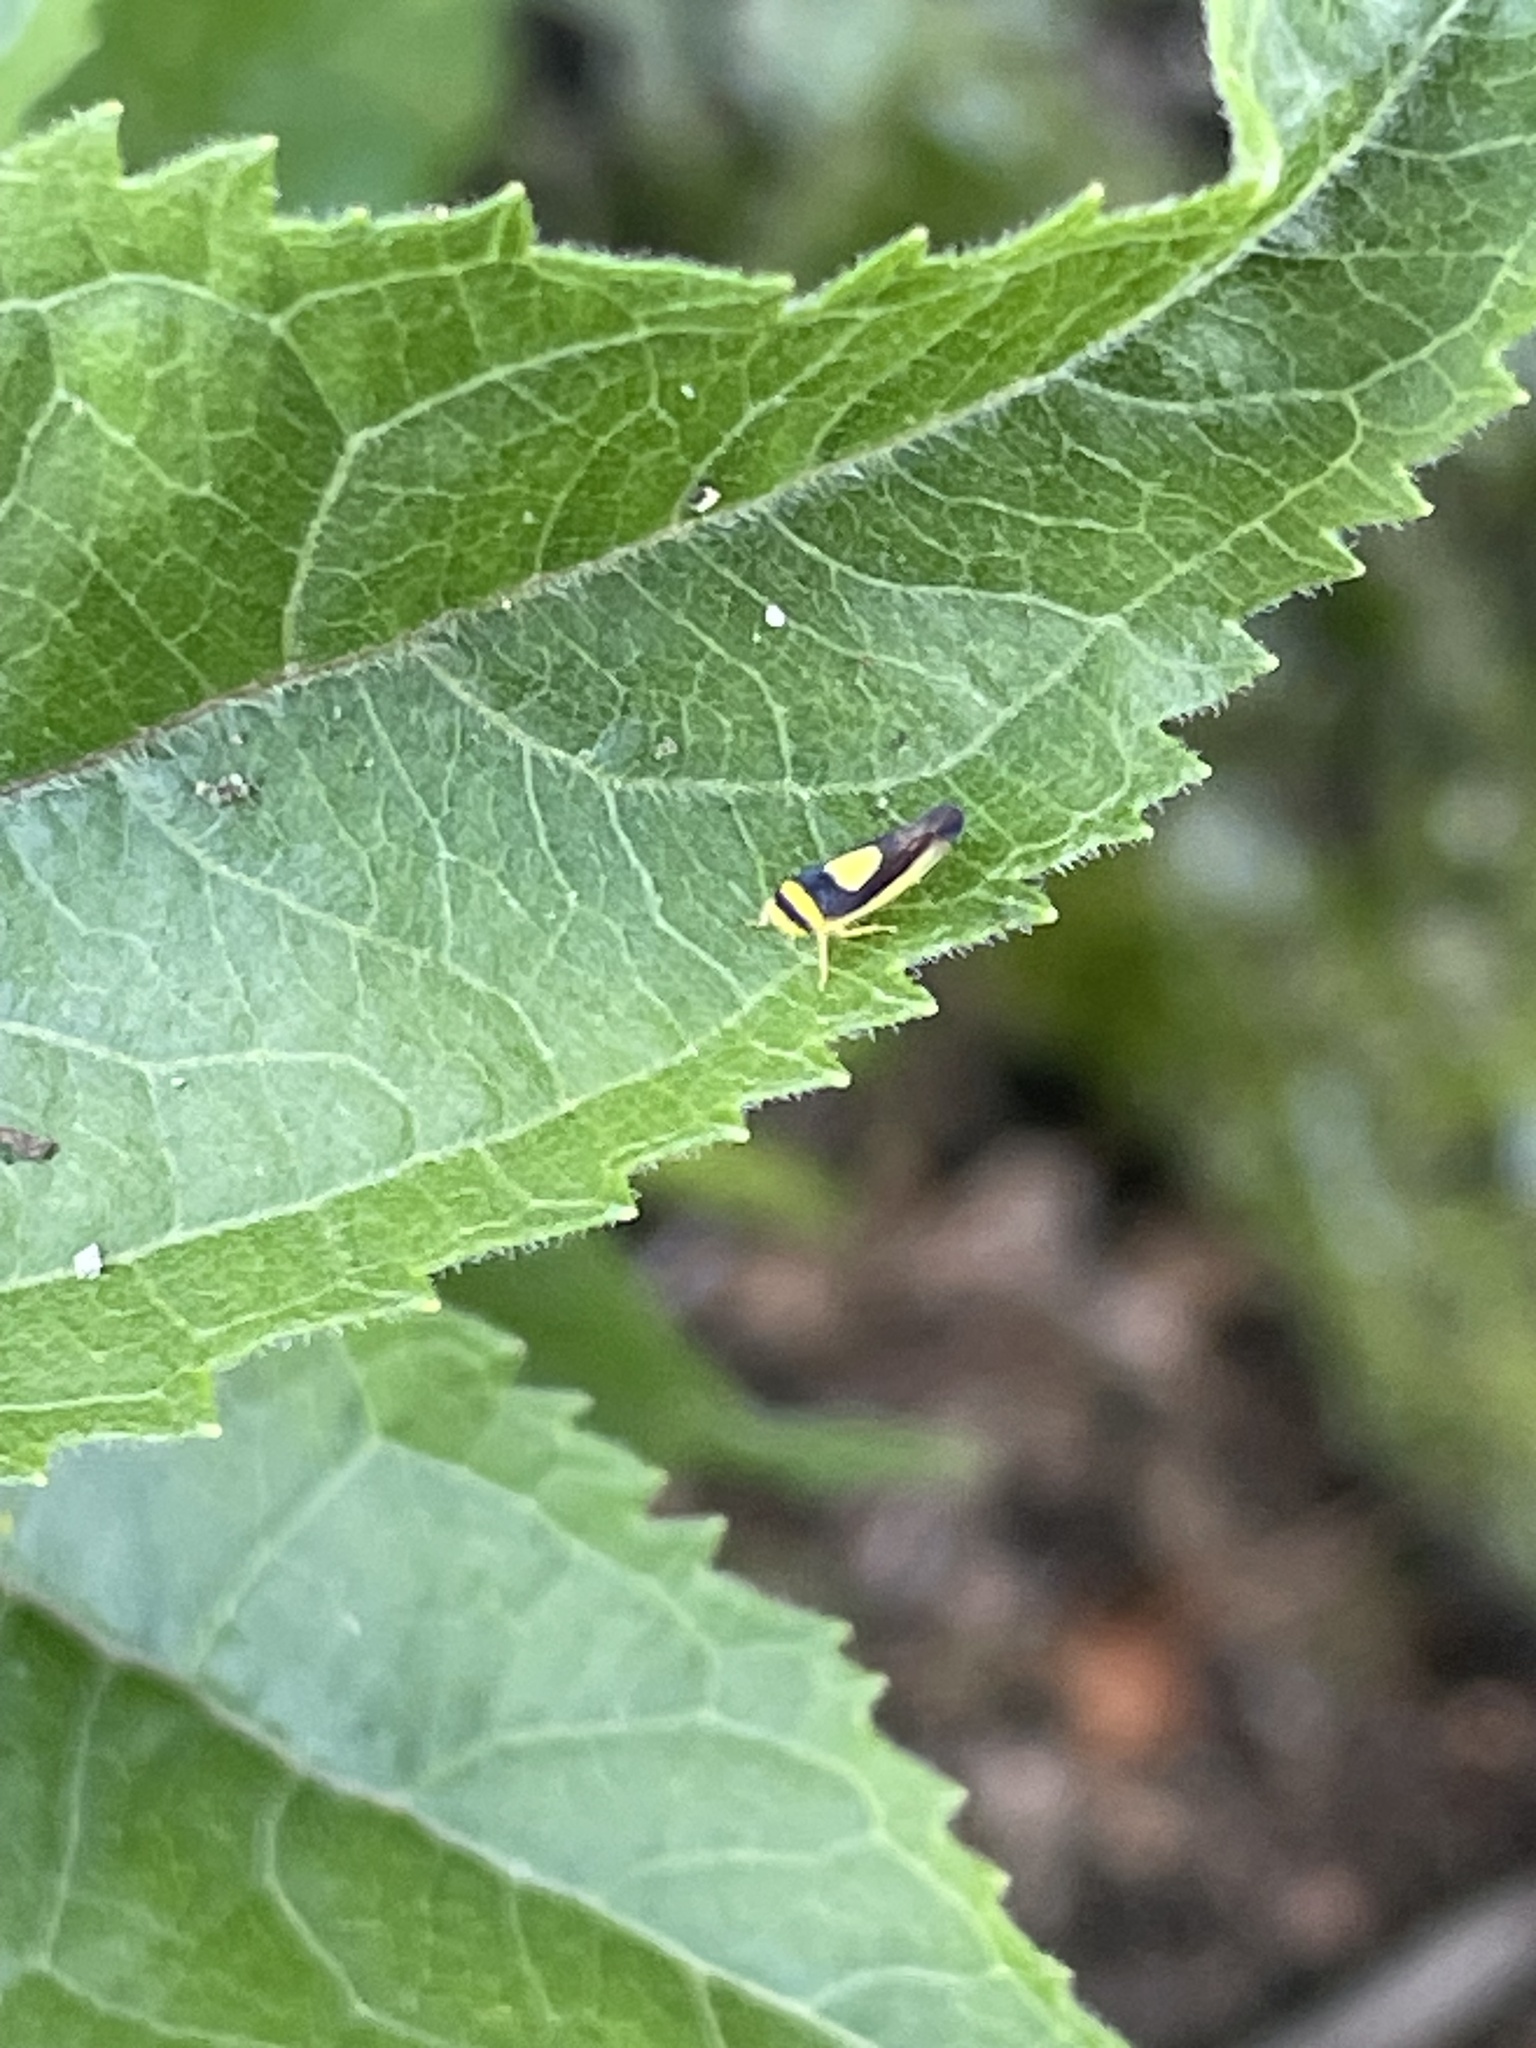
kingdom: Animalia
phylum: Arthropoda
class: Insecta
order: Hemiptera
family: Cicadellidae
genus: Colladonus
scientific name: Colladonus clitellarius
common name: The saddleback leafhopper
